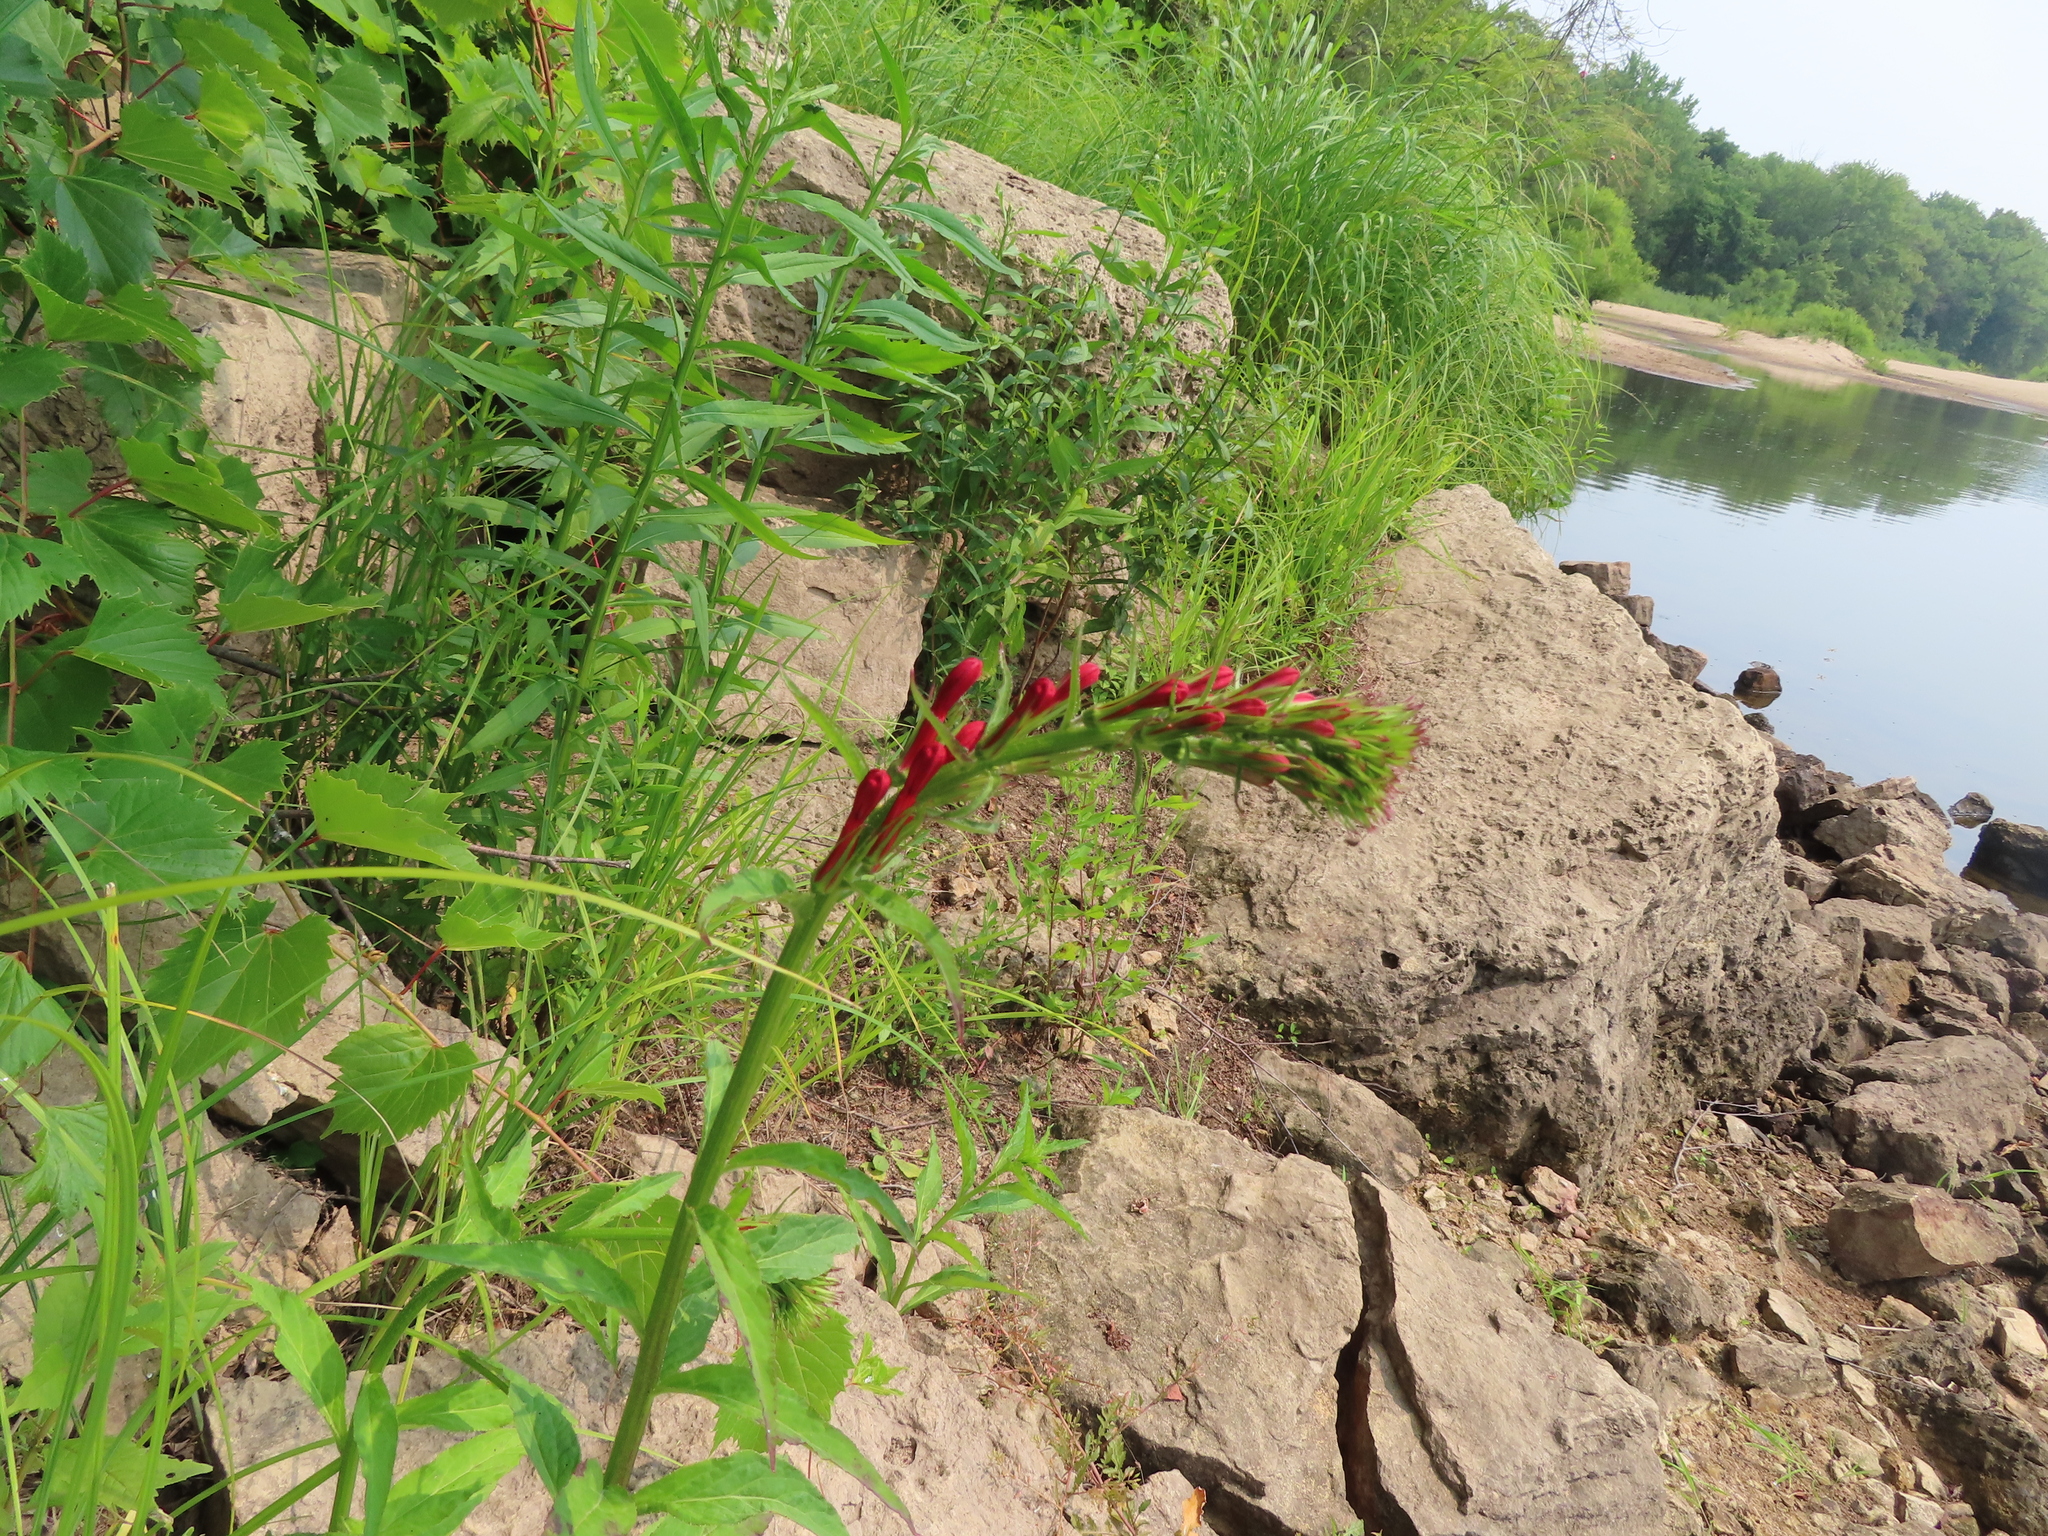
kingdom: Plantae
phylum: Tracheophyta
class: Magnoliopsida
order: Asterales
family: Campanulaceae
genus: Lobelia
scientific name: Lobelia cardinalis
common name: Cardinal flower
